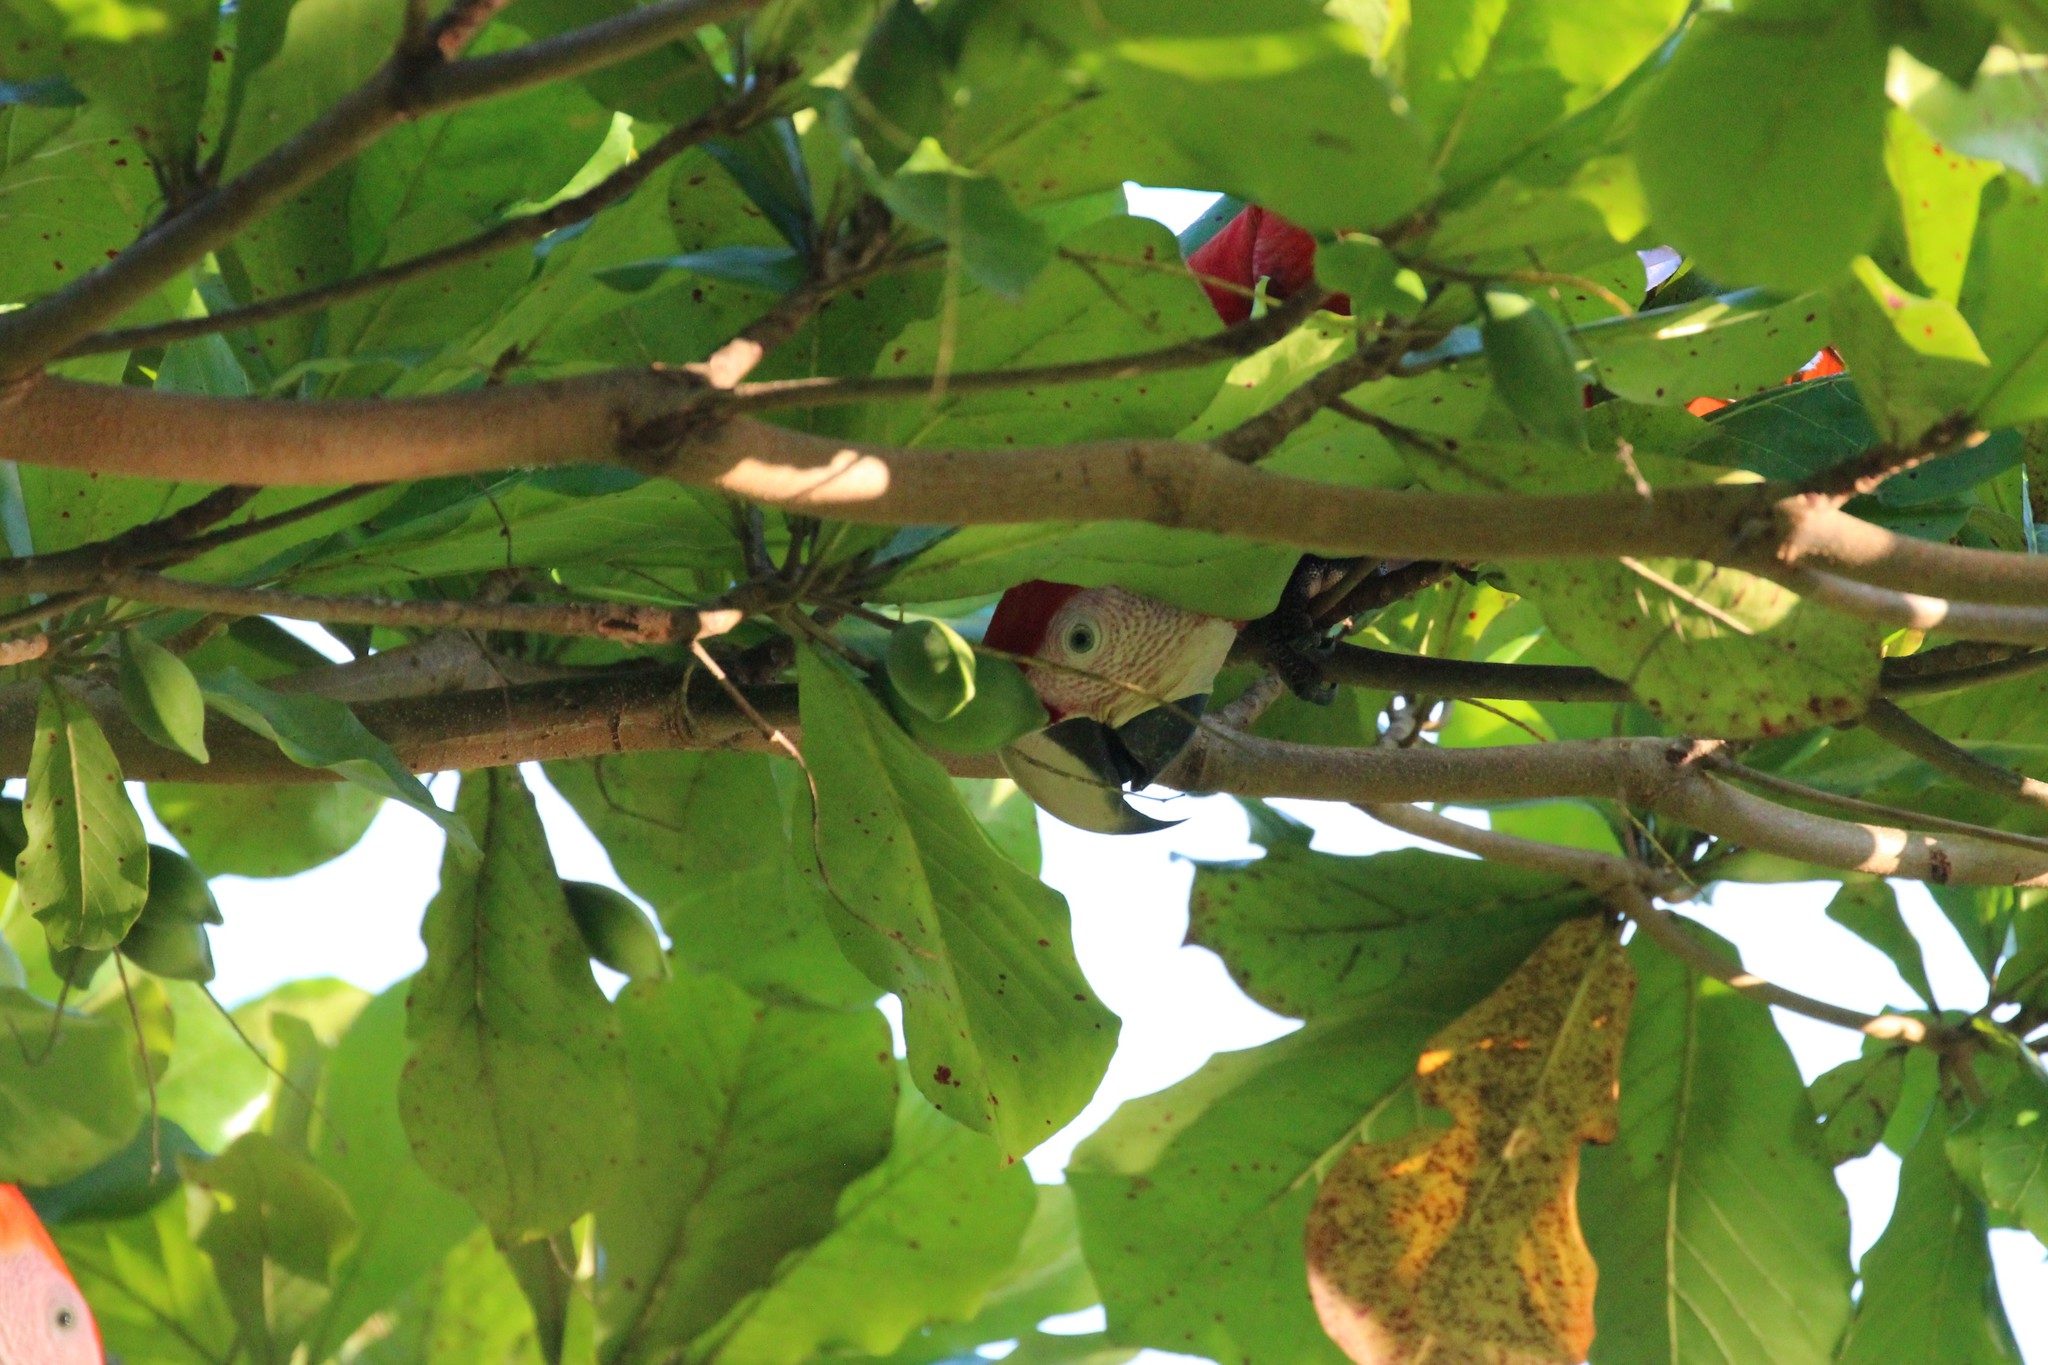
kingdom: Animalia
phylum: Chordata
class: Aves
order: Psittaciformes
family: Psittacidae
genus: Ara
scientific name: Ara macao
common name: Scarlet macaw
